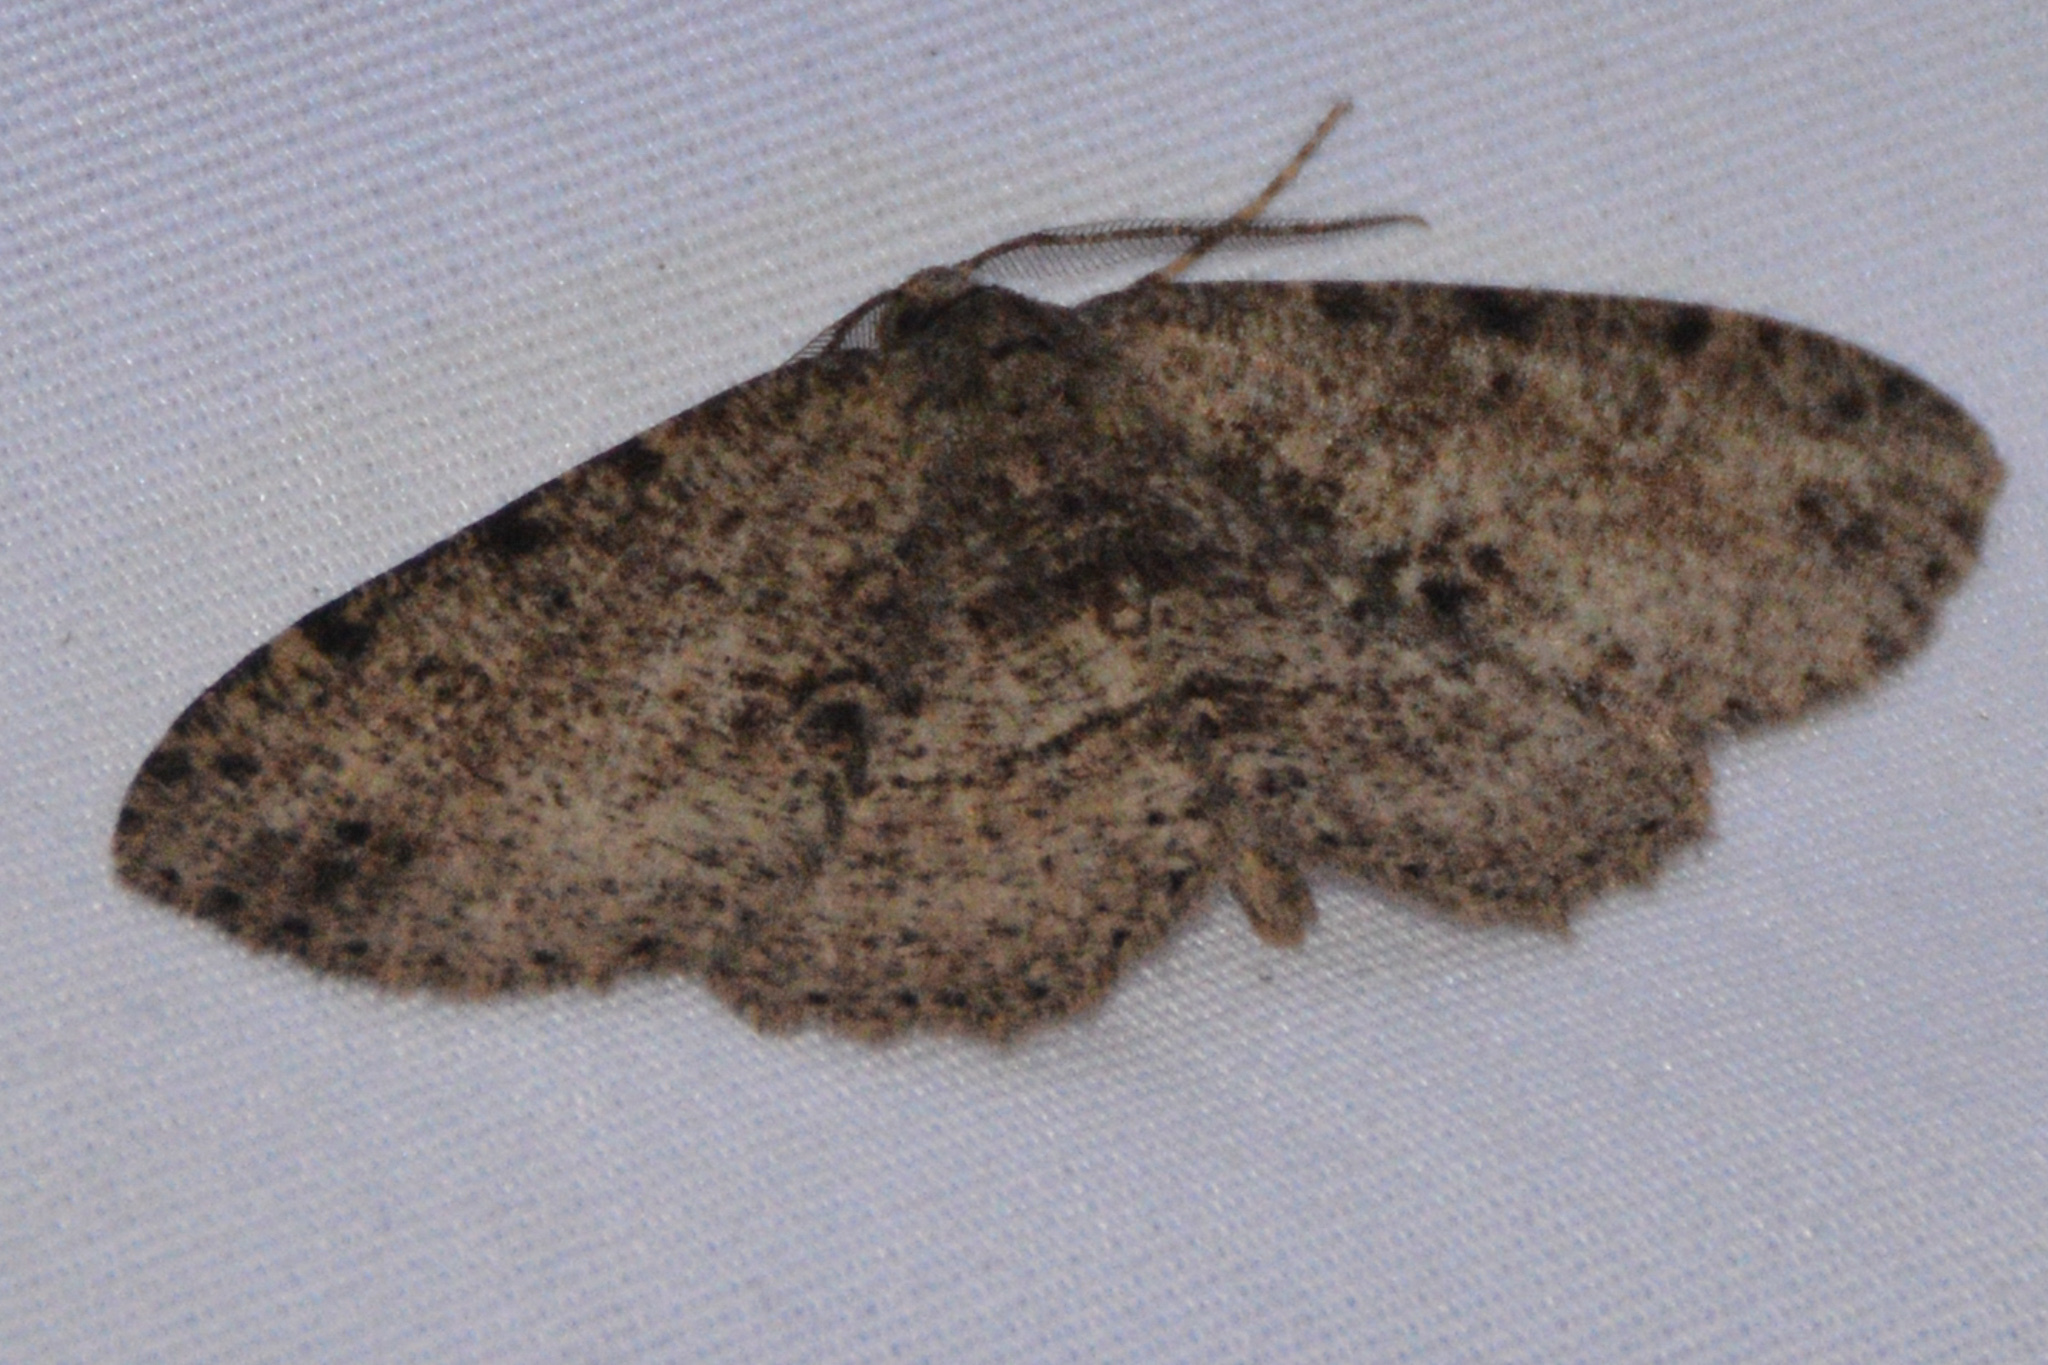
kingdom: Animalia
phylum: Arthropoda
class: Insecta
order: Lepidoptera
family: Geometridae
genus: Melanolophia
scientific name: Melanolophia canadaria
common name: Canadian melanolophia
